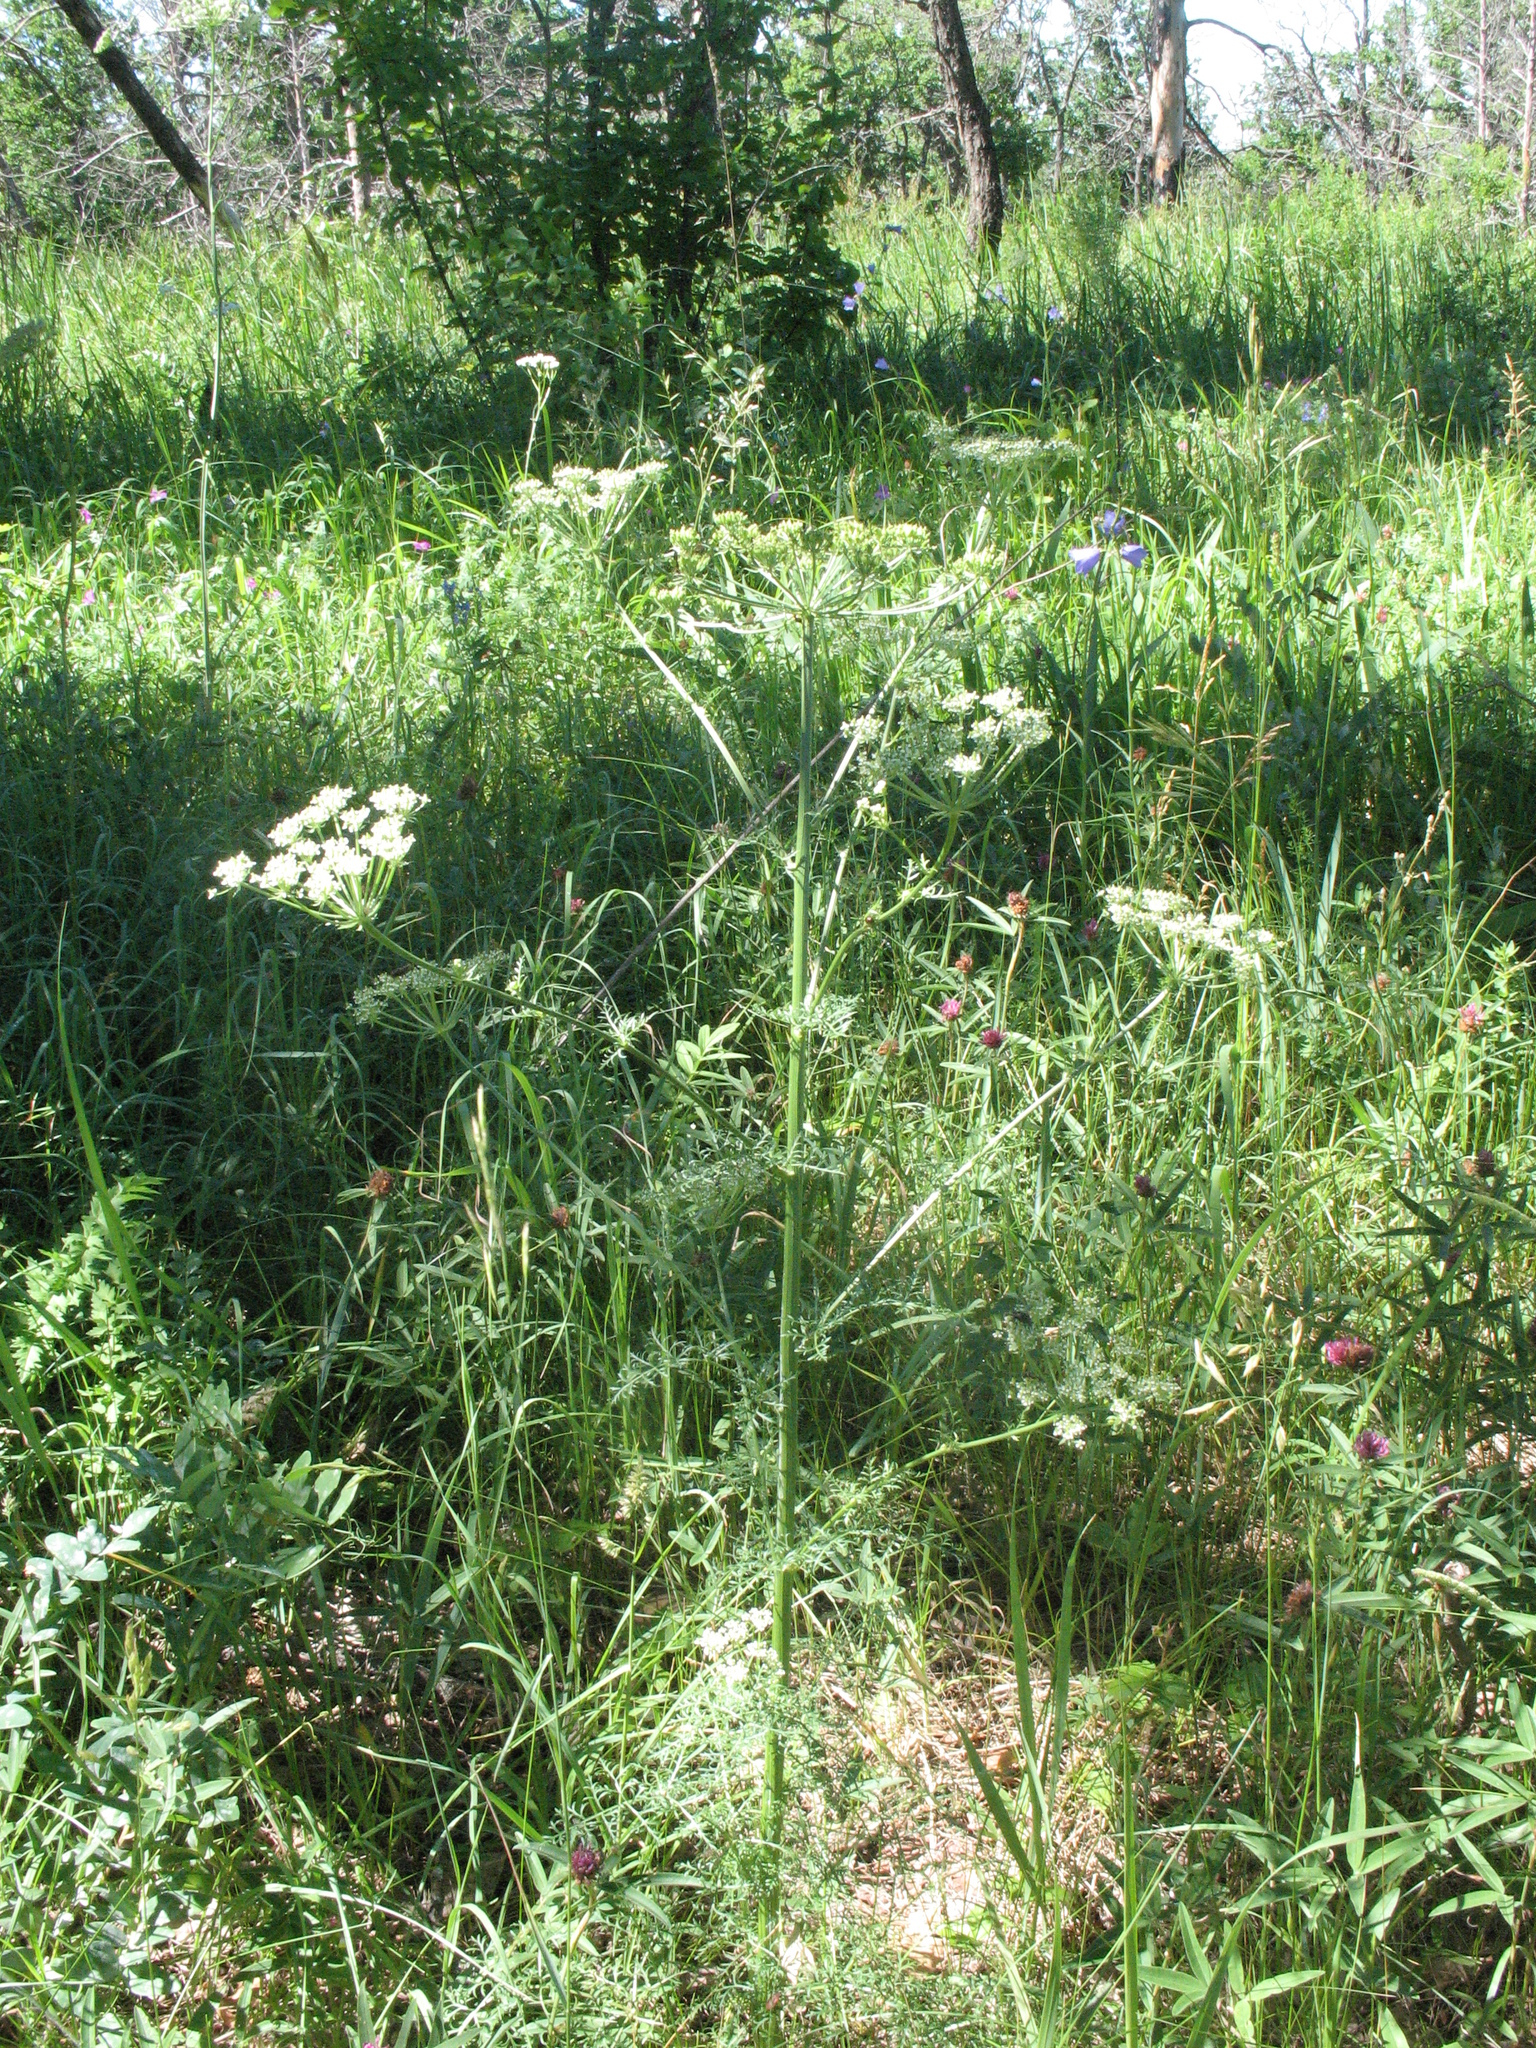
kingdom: Plantae
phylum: Tracheophyta
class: Magnoliopsida
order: Apiales
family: Apiaceae
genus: Aulacospermum
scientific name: Aulacospermum multifidum
